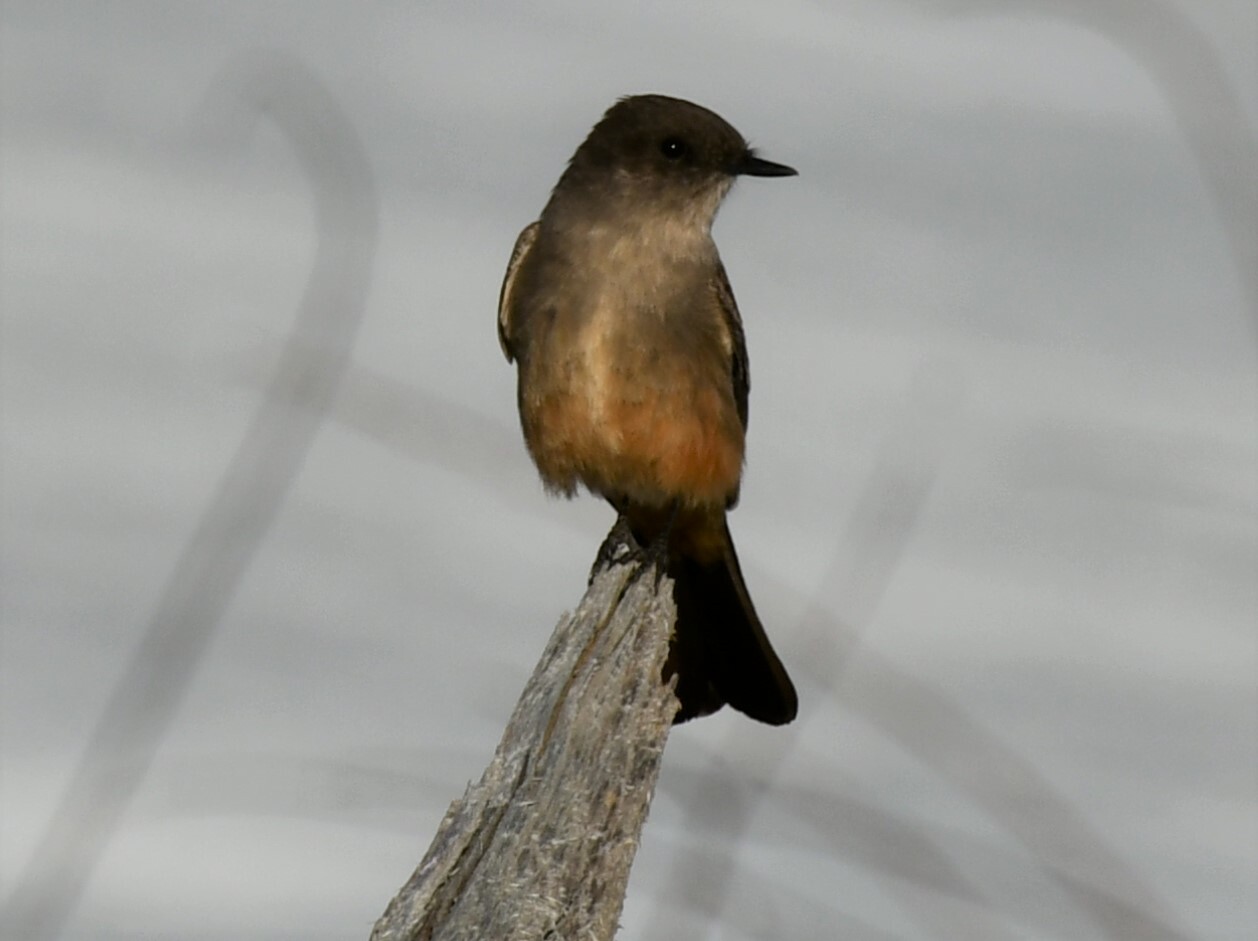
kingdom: Animalia
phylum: Chordata
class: Aves
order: Passeriformes
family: Tyrannidae
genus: Sayornis
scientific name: Sayornis saya
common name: Say's phoebe
